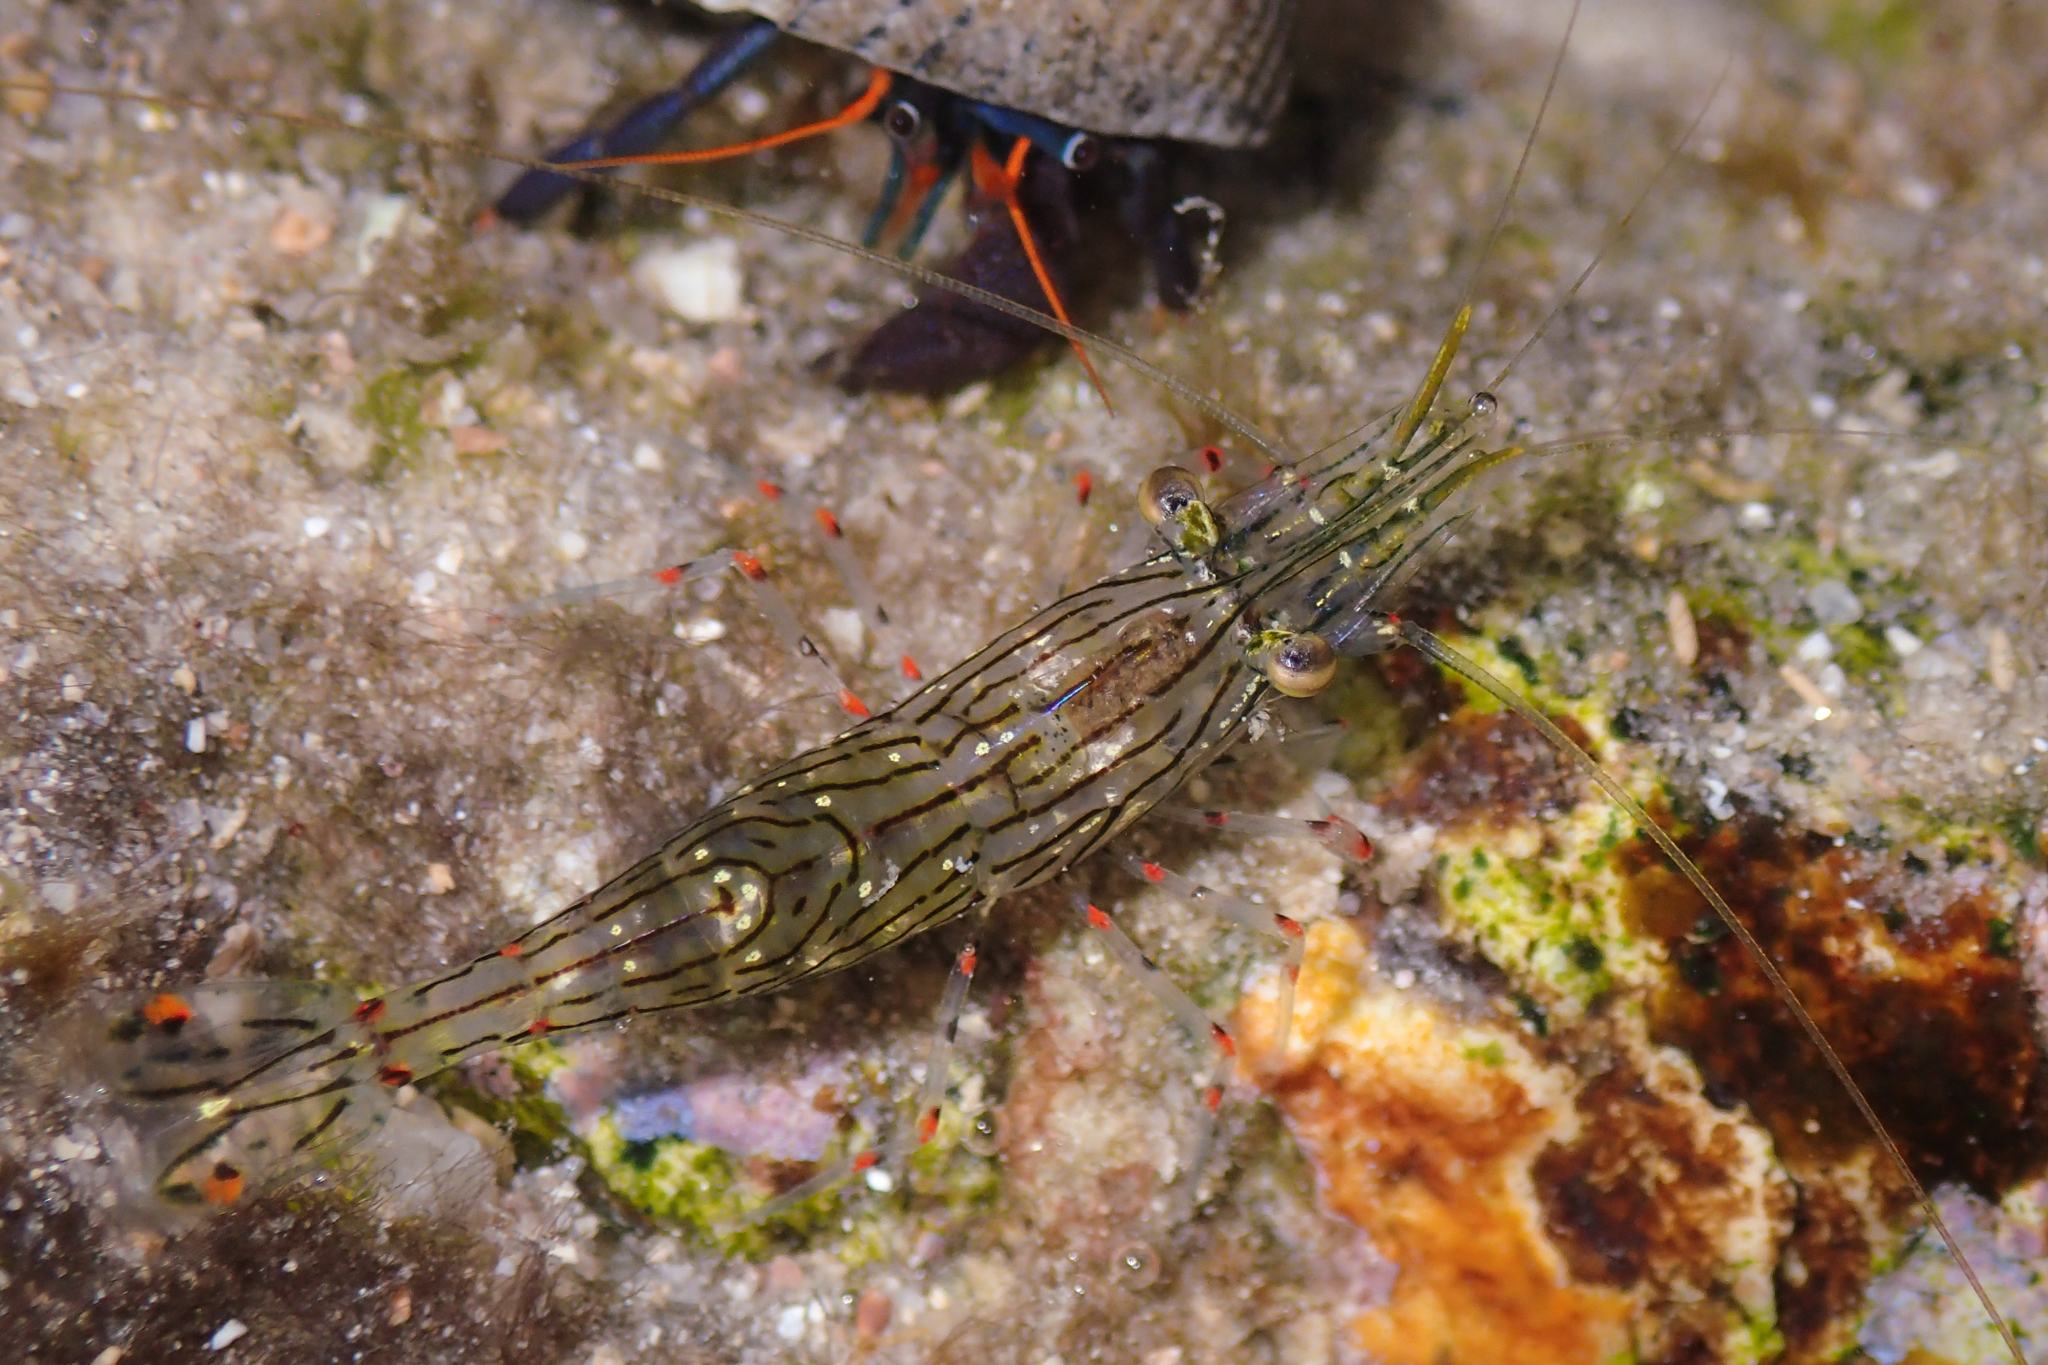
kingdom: Animalia
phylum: Arthropoda
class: Malacostraca
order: Decapoda
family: Palaemonidae
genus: Palaemon
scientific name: Palaemon ritteri
